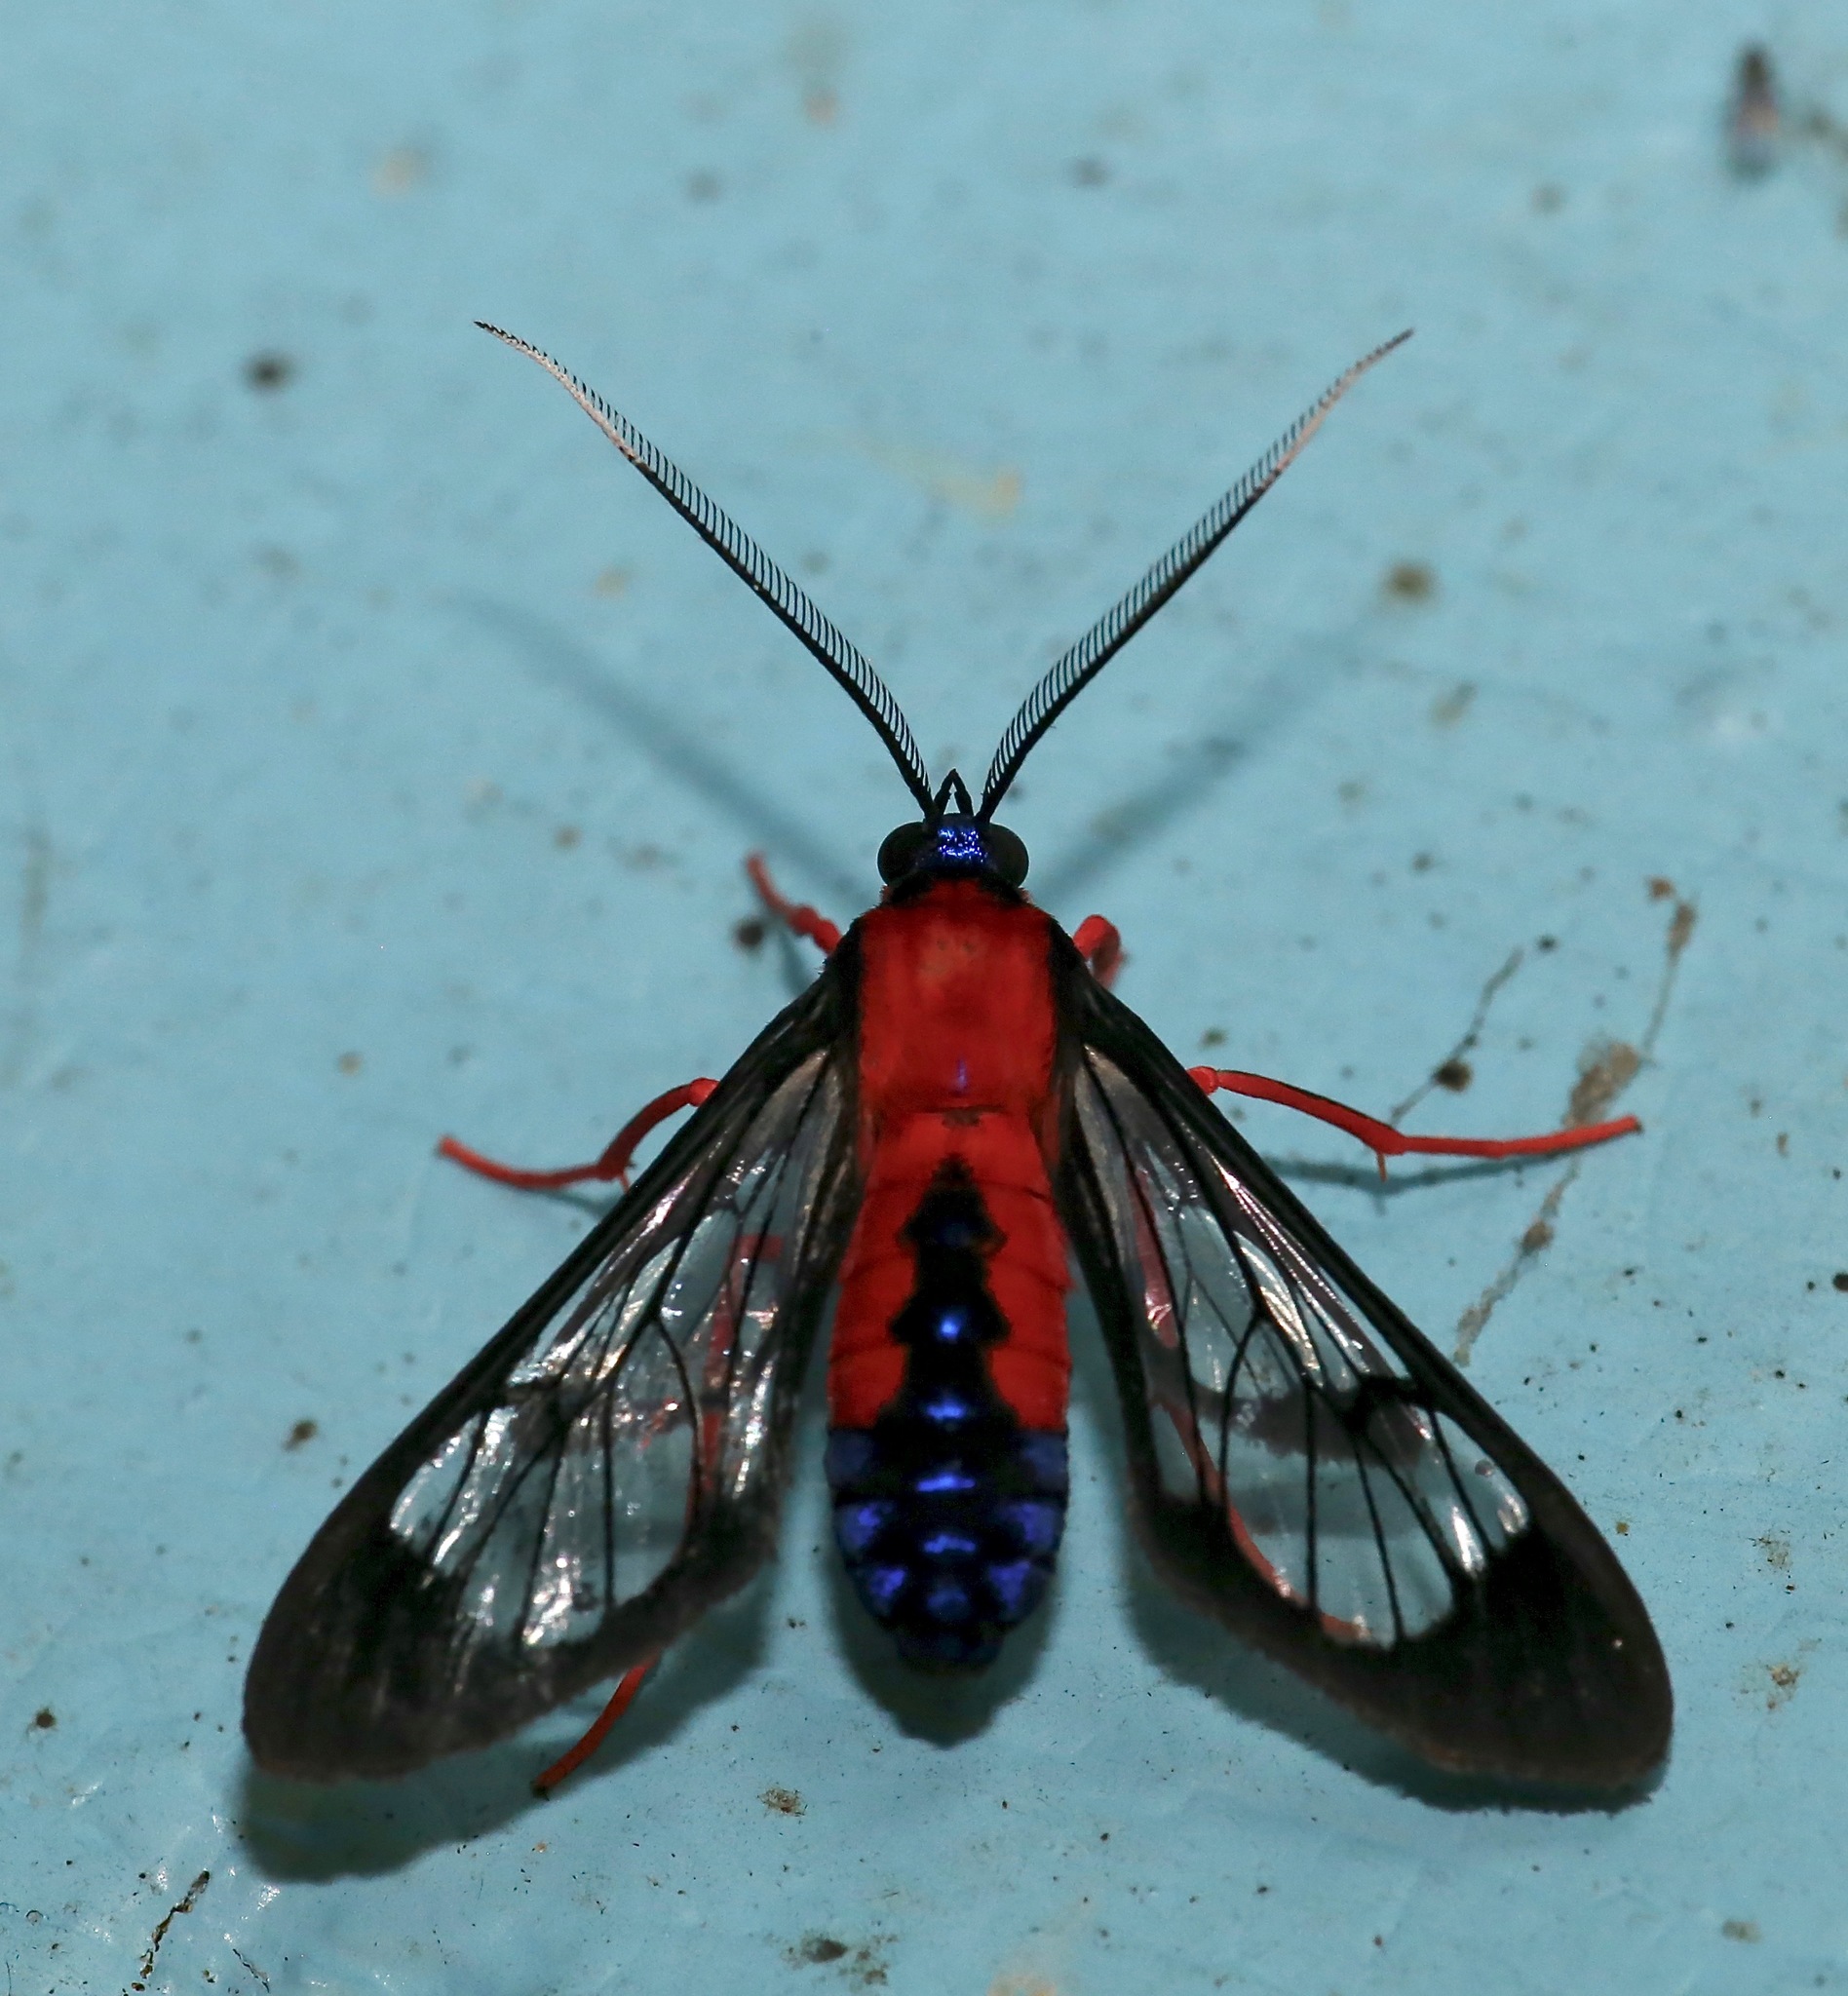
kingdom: Animalia
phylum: Arthropoda
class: Insecta
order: Lepidoptera
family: Erebidae
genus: Cosmosoma
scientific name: Cosmosoma myrodora
